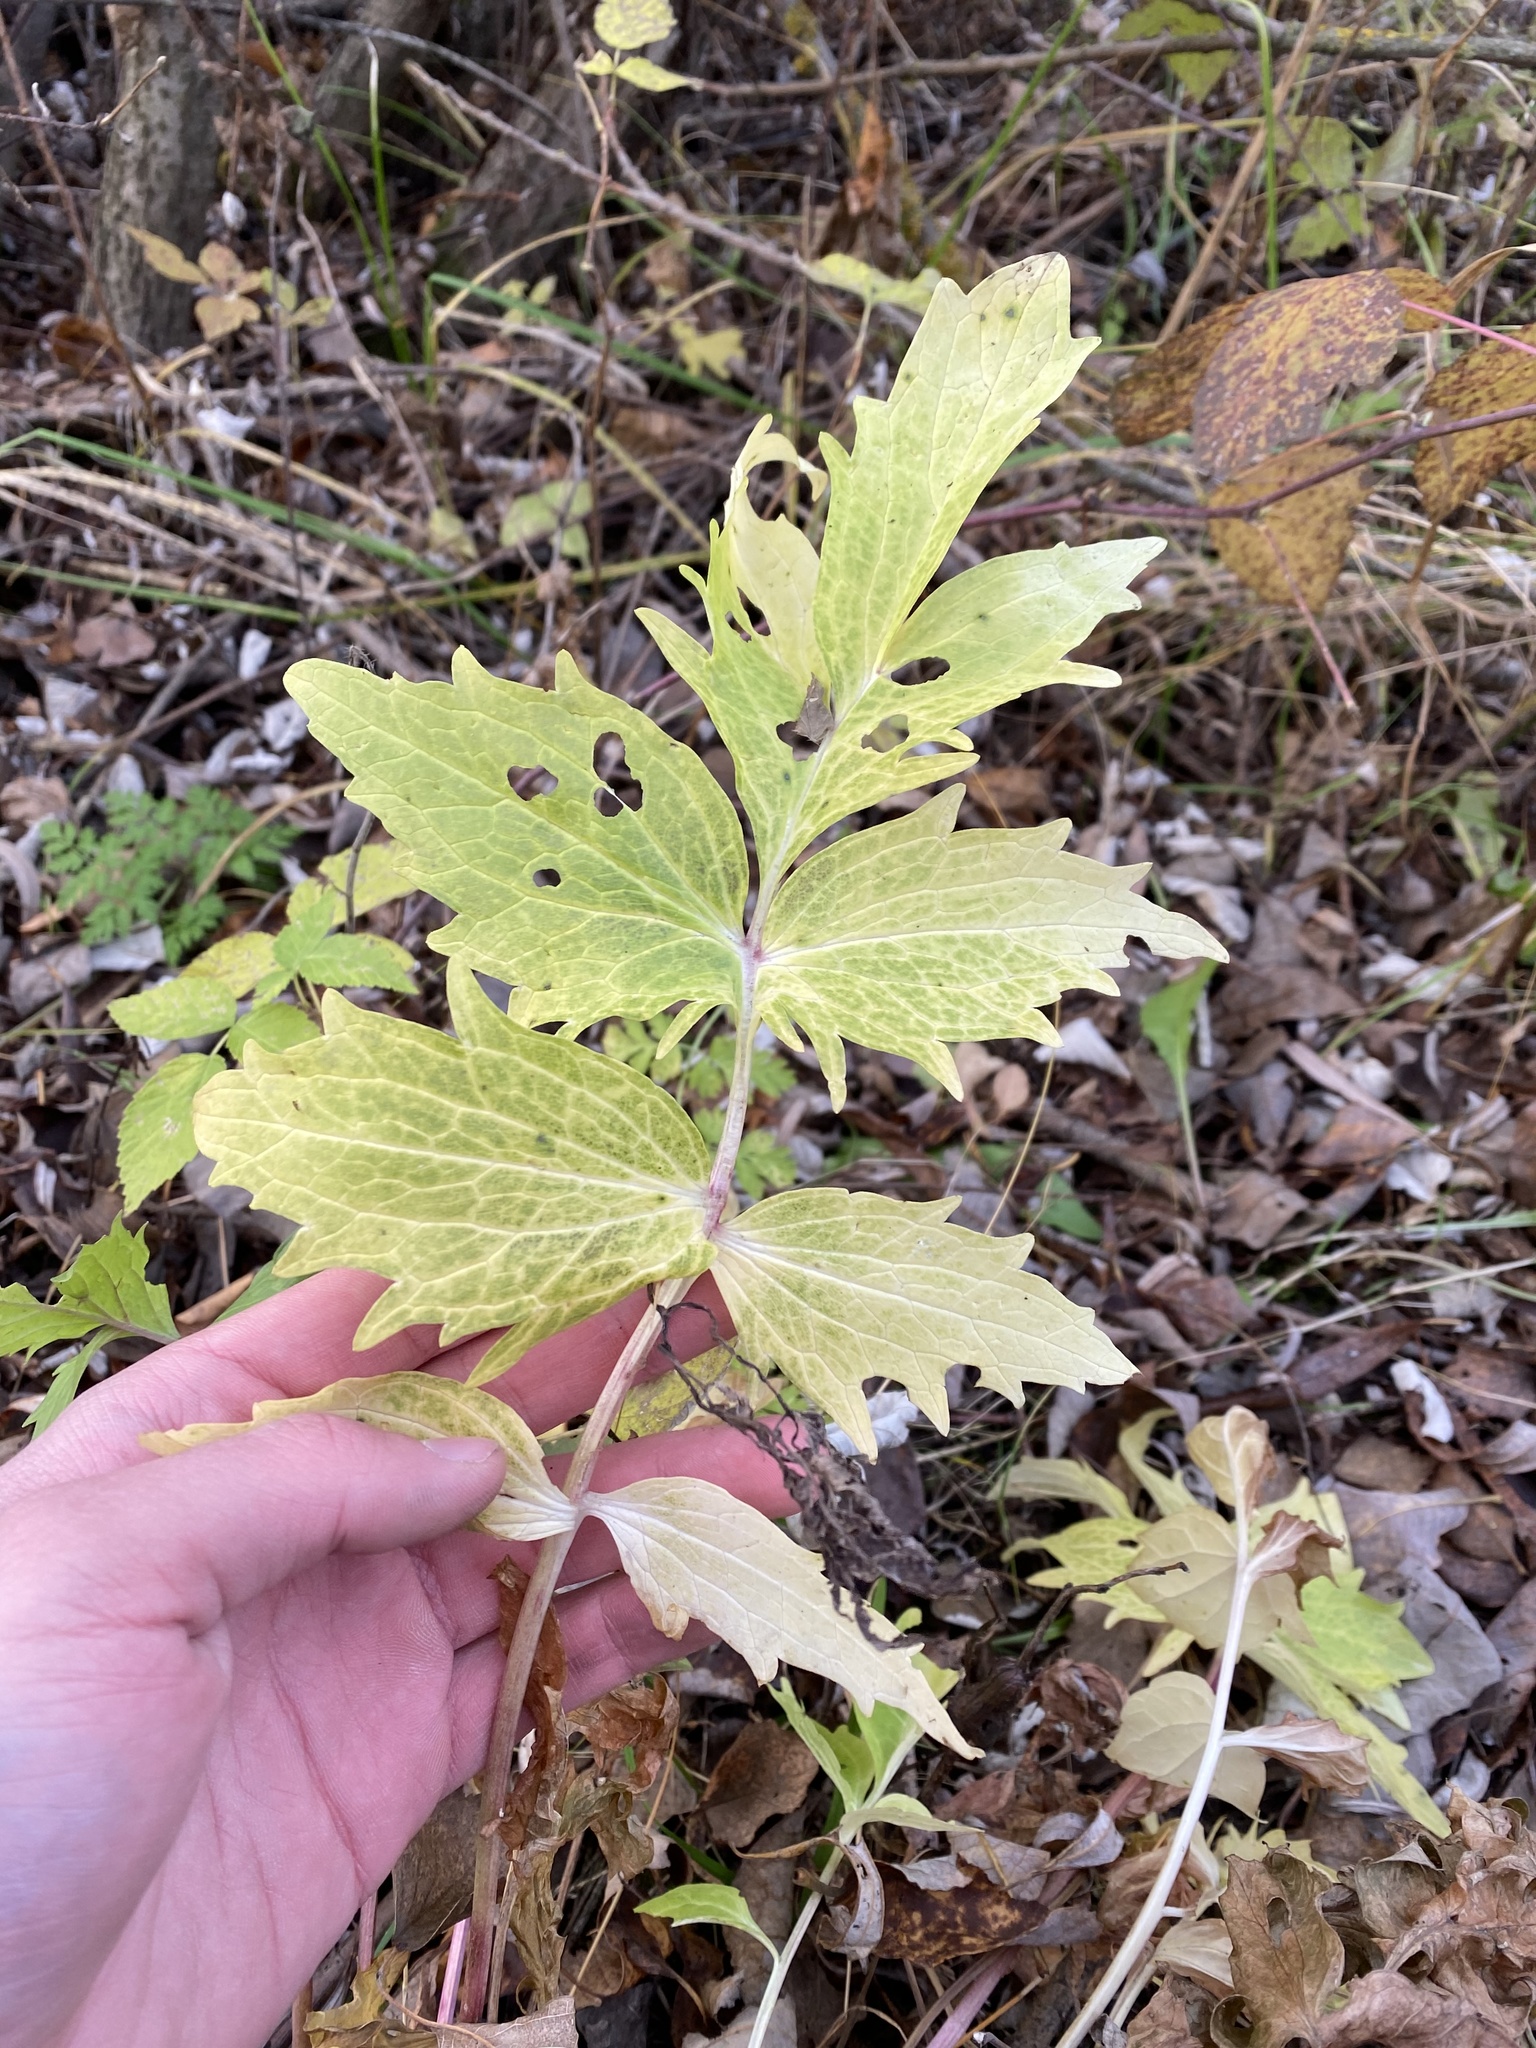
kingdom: Plantae
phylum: Tracheophyta
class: Magnoliopsida
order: Dipsacales
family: Caprifoliaceae
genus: Valeriana
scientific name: Valeriana officinalis
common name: Common valerian
